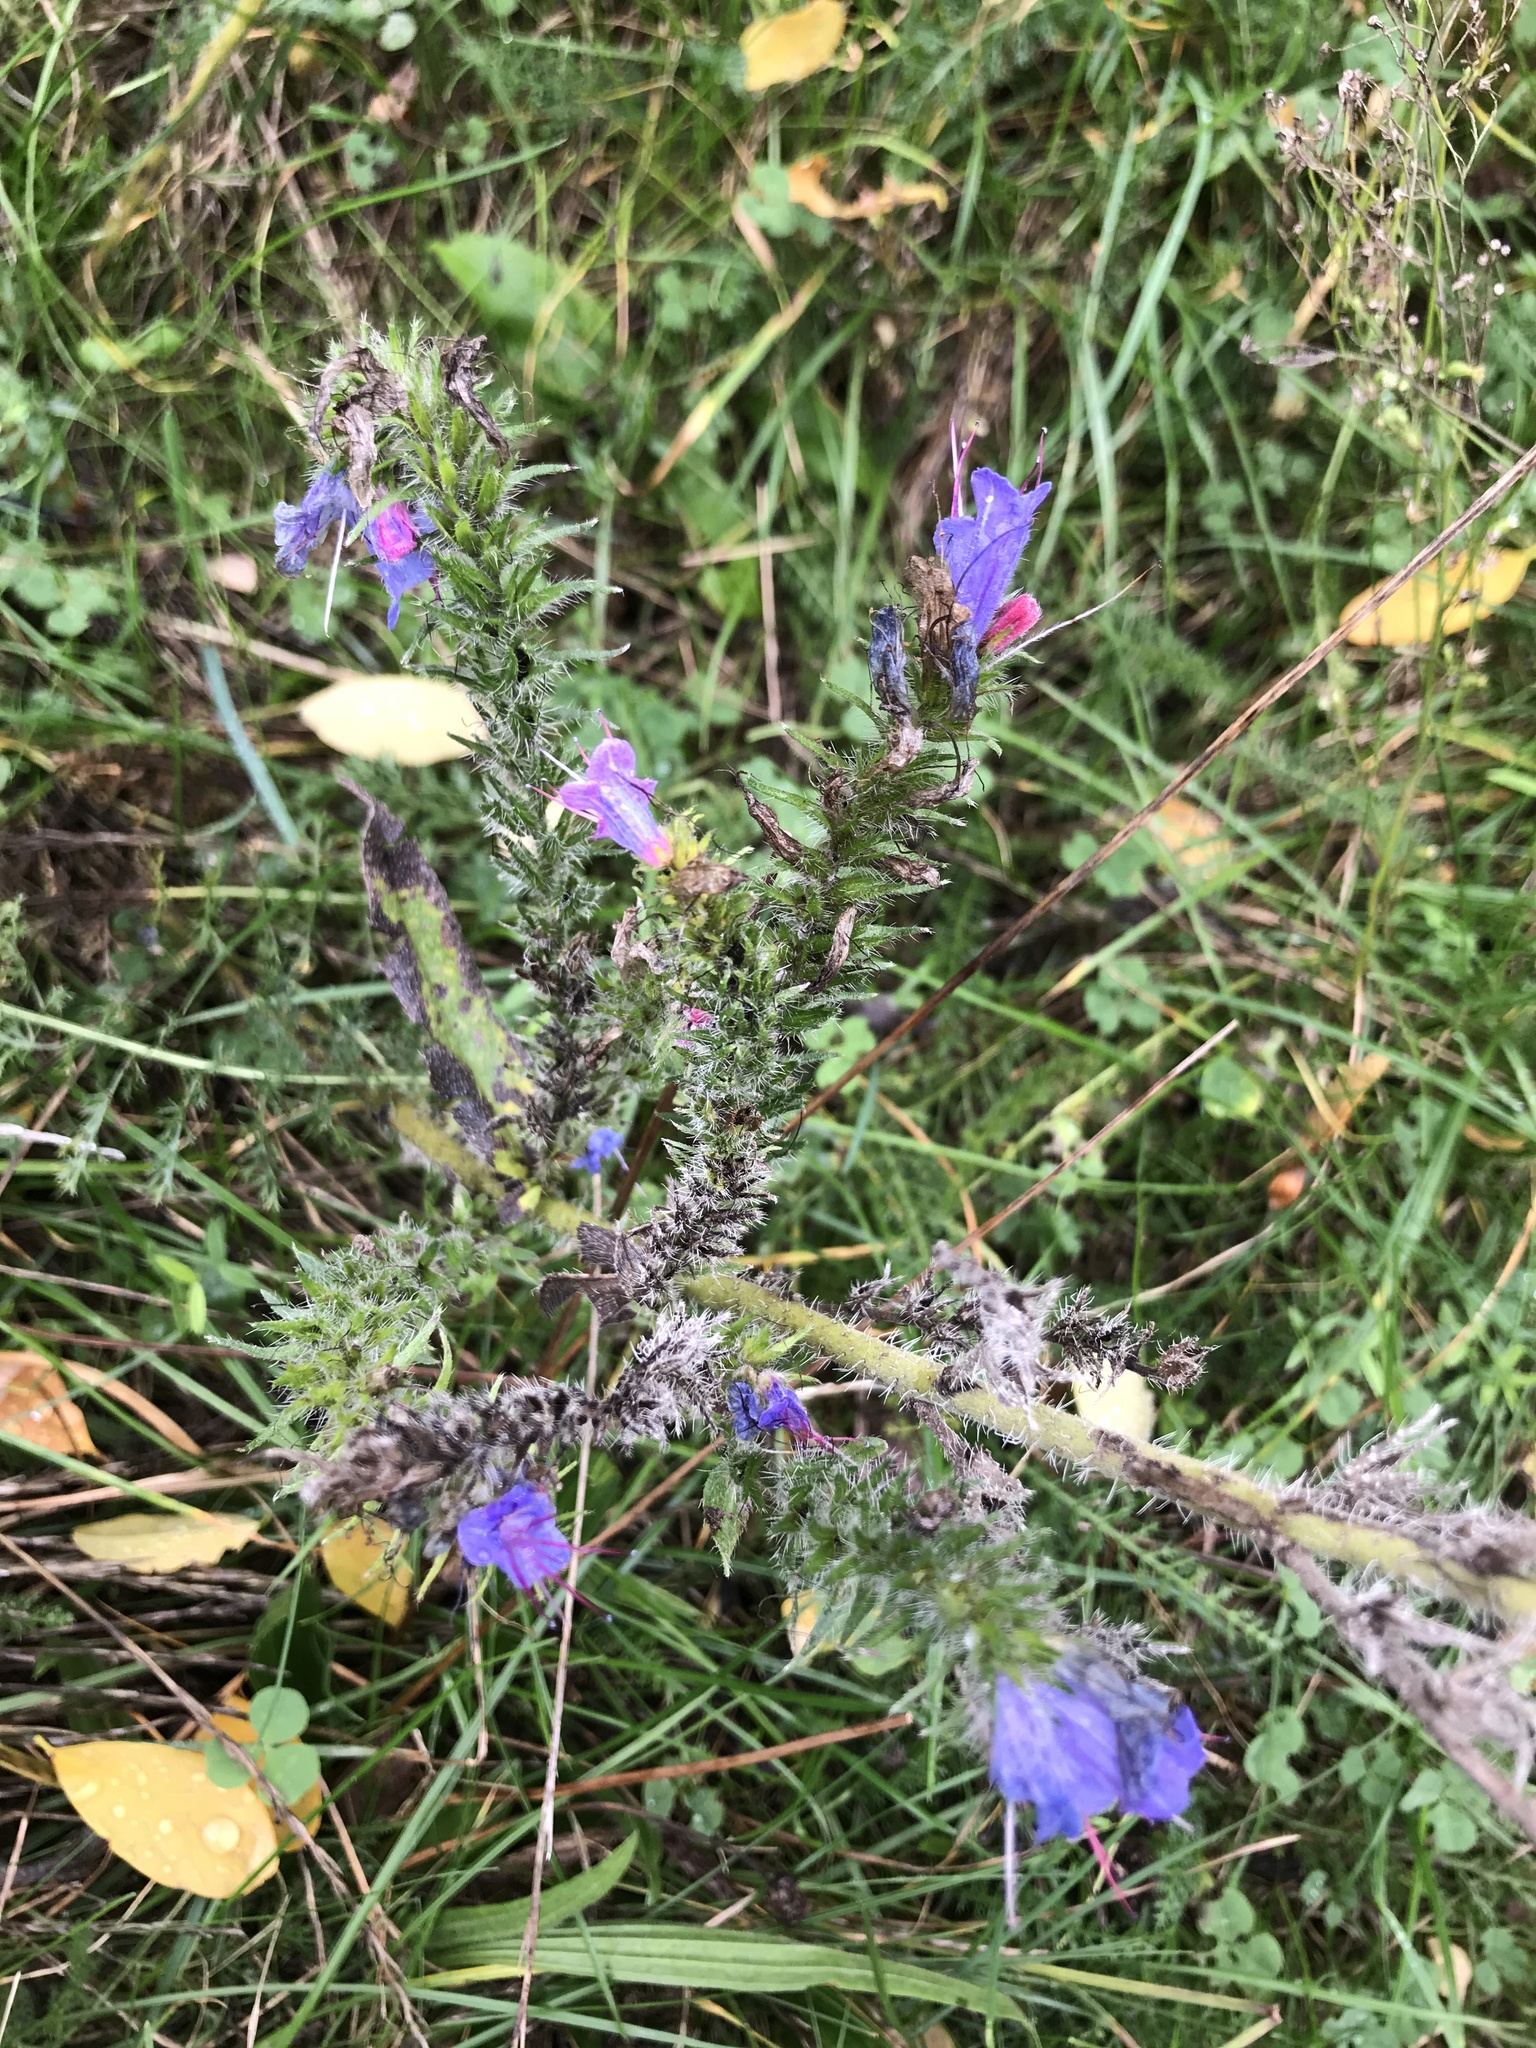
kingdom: Plantae
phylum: Tracheophyta
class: Magnoliopsida
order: Boraginales
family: Boraginaceae
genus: Echium
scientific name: Echium vulgare
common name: Common viper's bugloss
